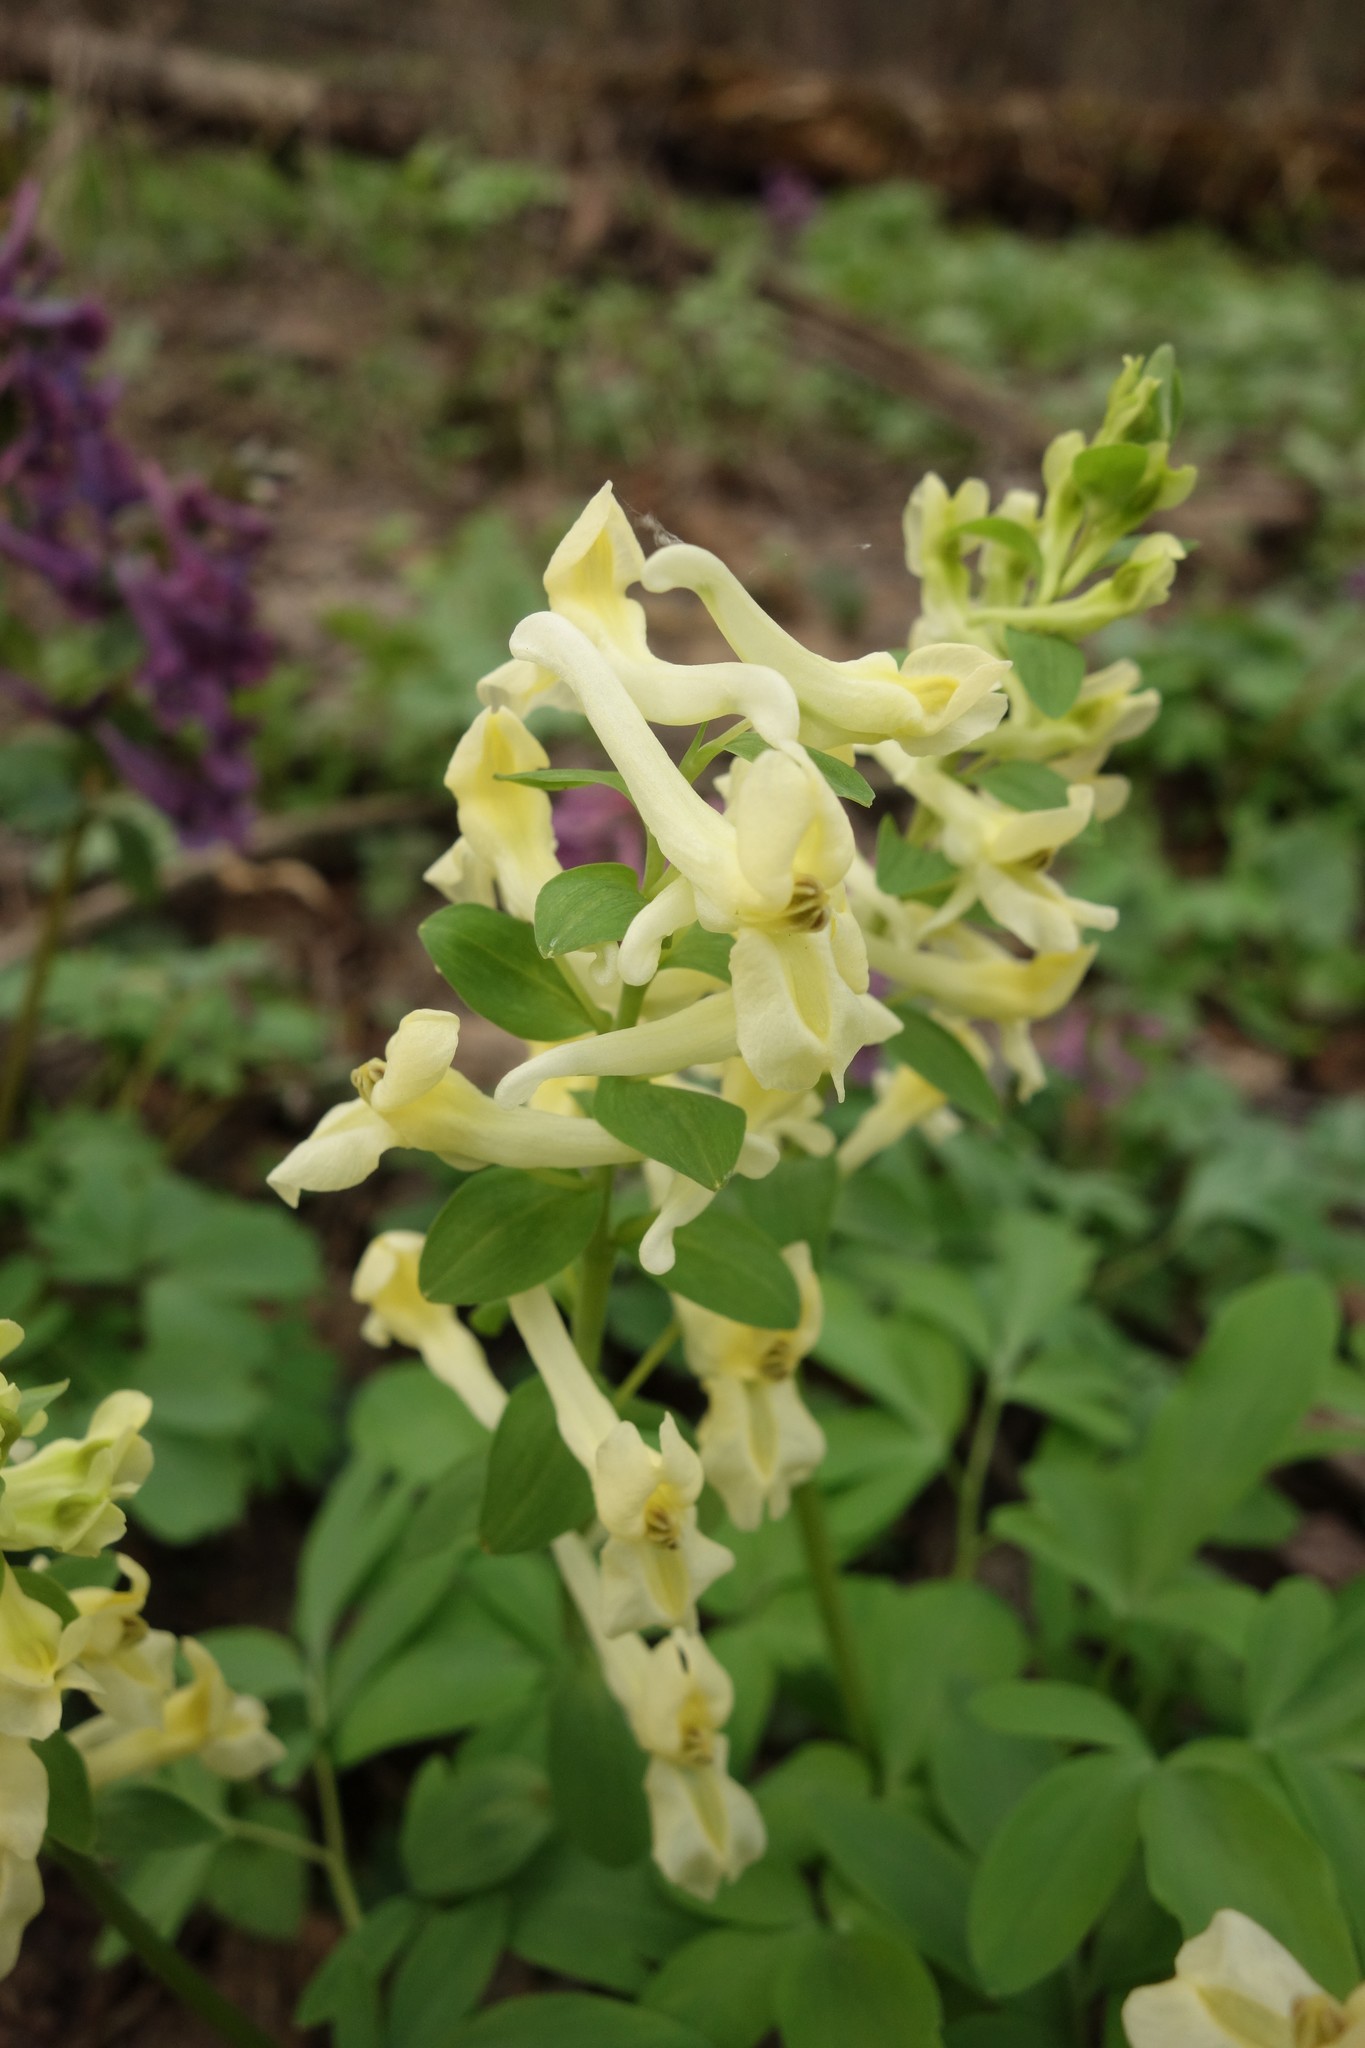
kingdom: Plantae
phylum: Tracheophyta
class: Magnoliopsida
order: Ranunculales
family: Papaveraceae
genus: Corydalis
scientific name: Corydalis cava
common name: Hollowroot
